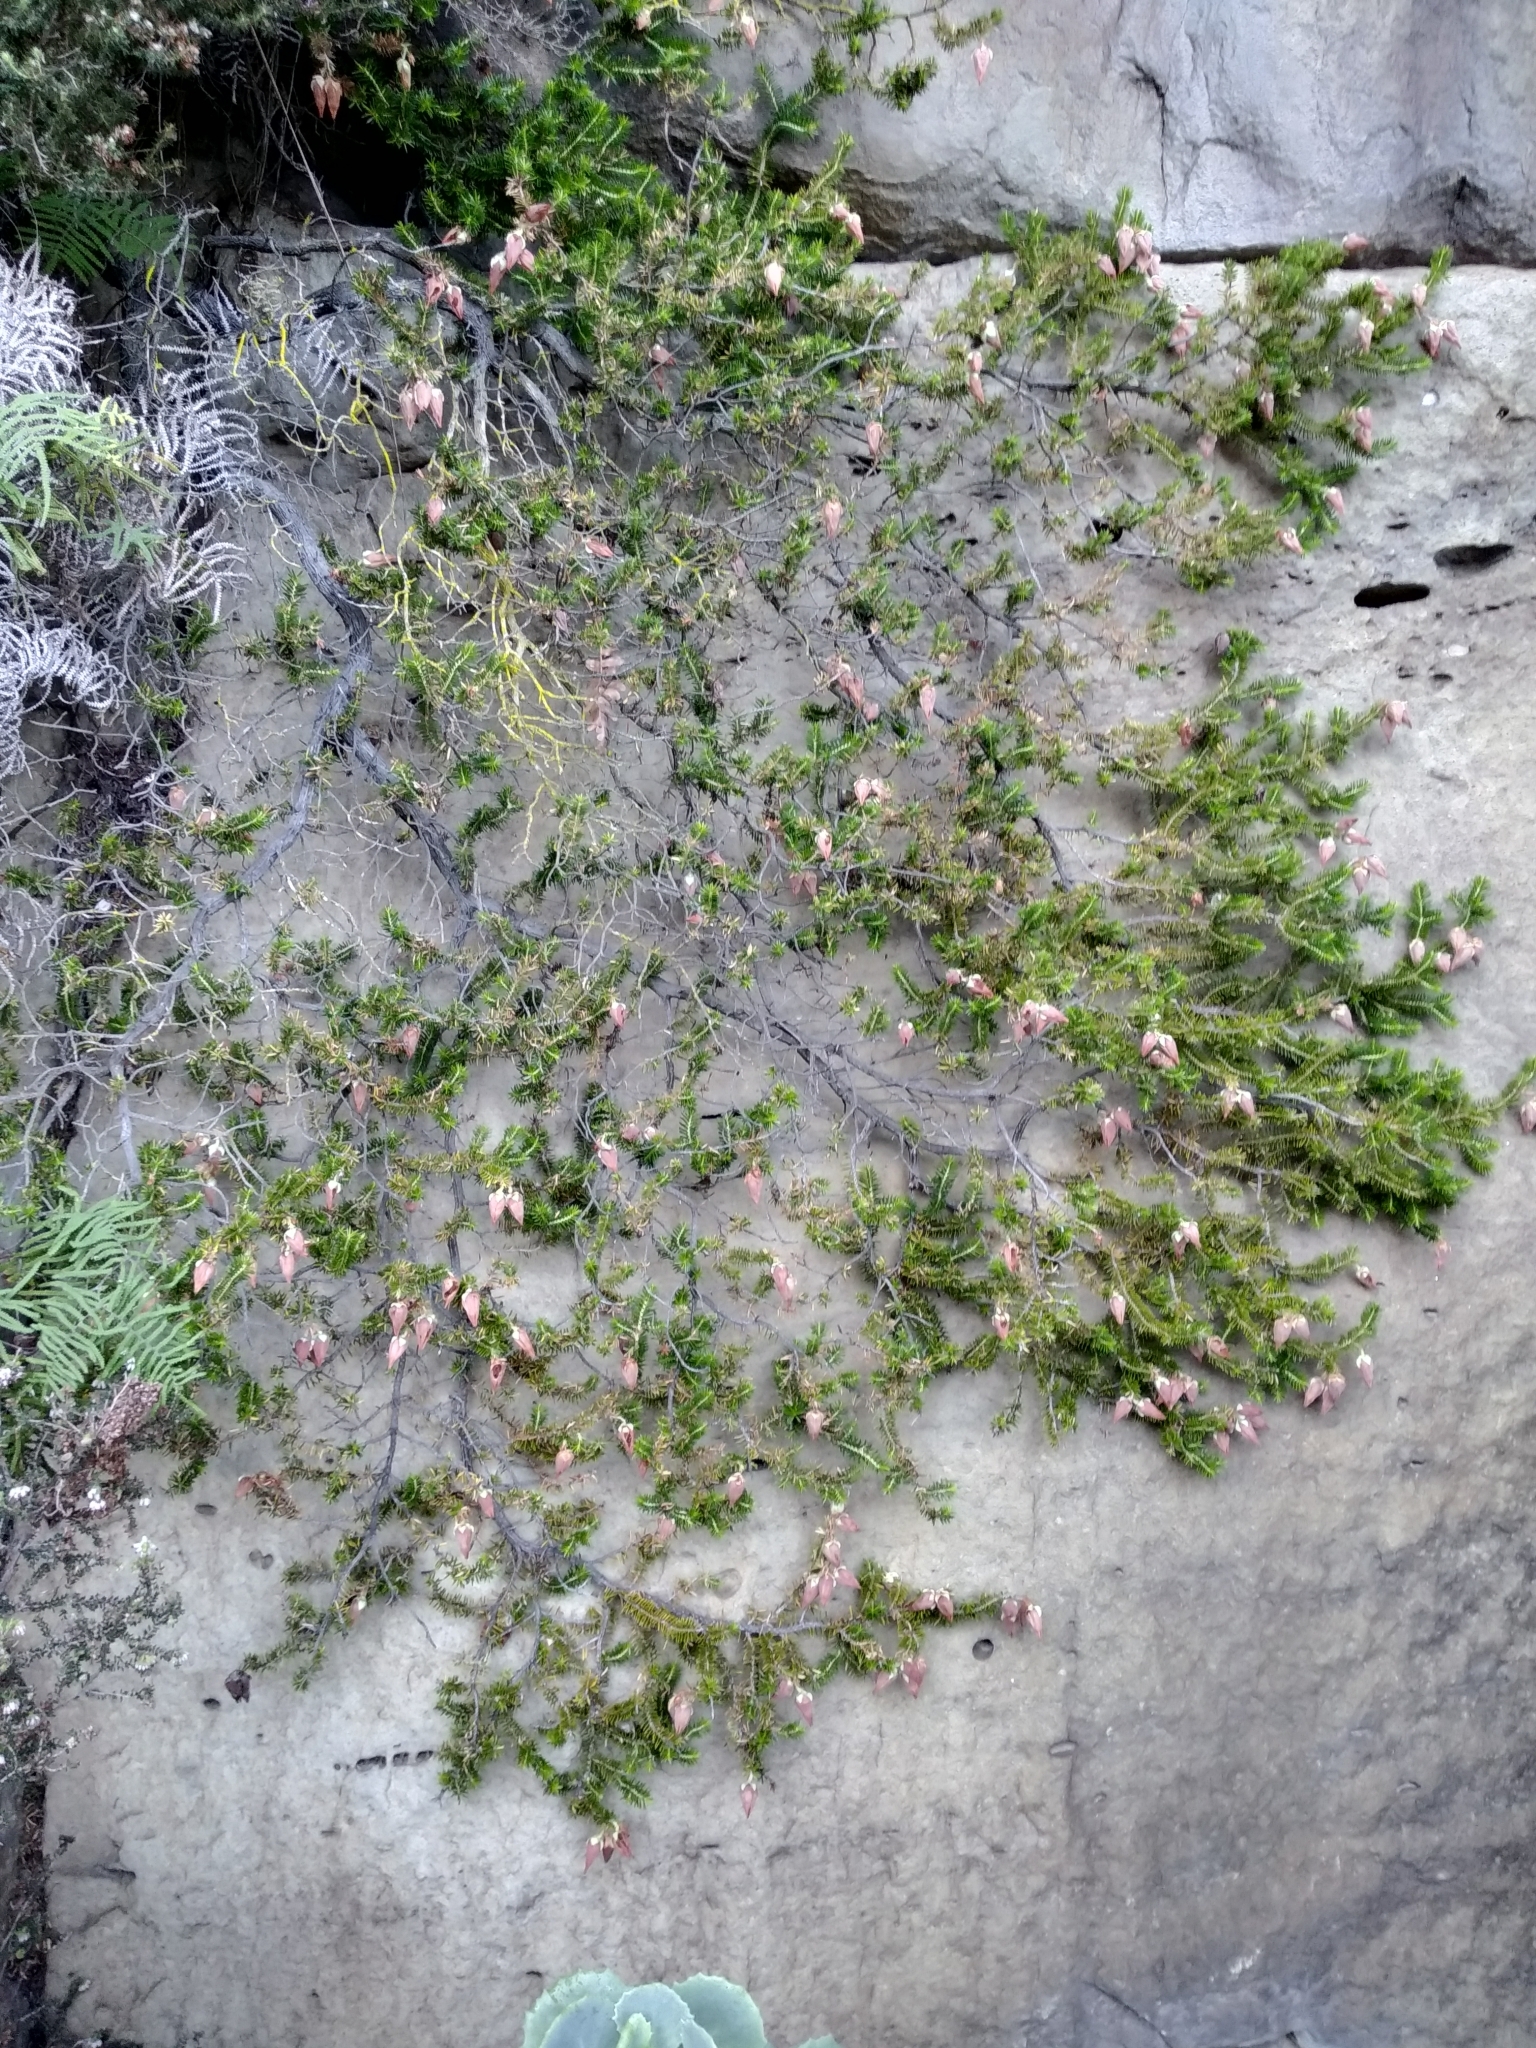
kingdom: Plantae
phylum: Tracheophyta
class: Magnoliopsida
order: Ericales
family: Ericaceae
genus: Erica
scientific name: Erica halicacaba
